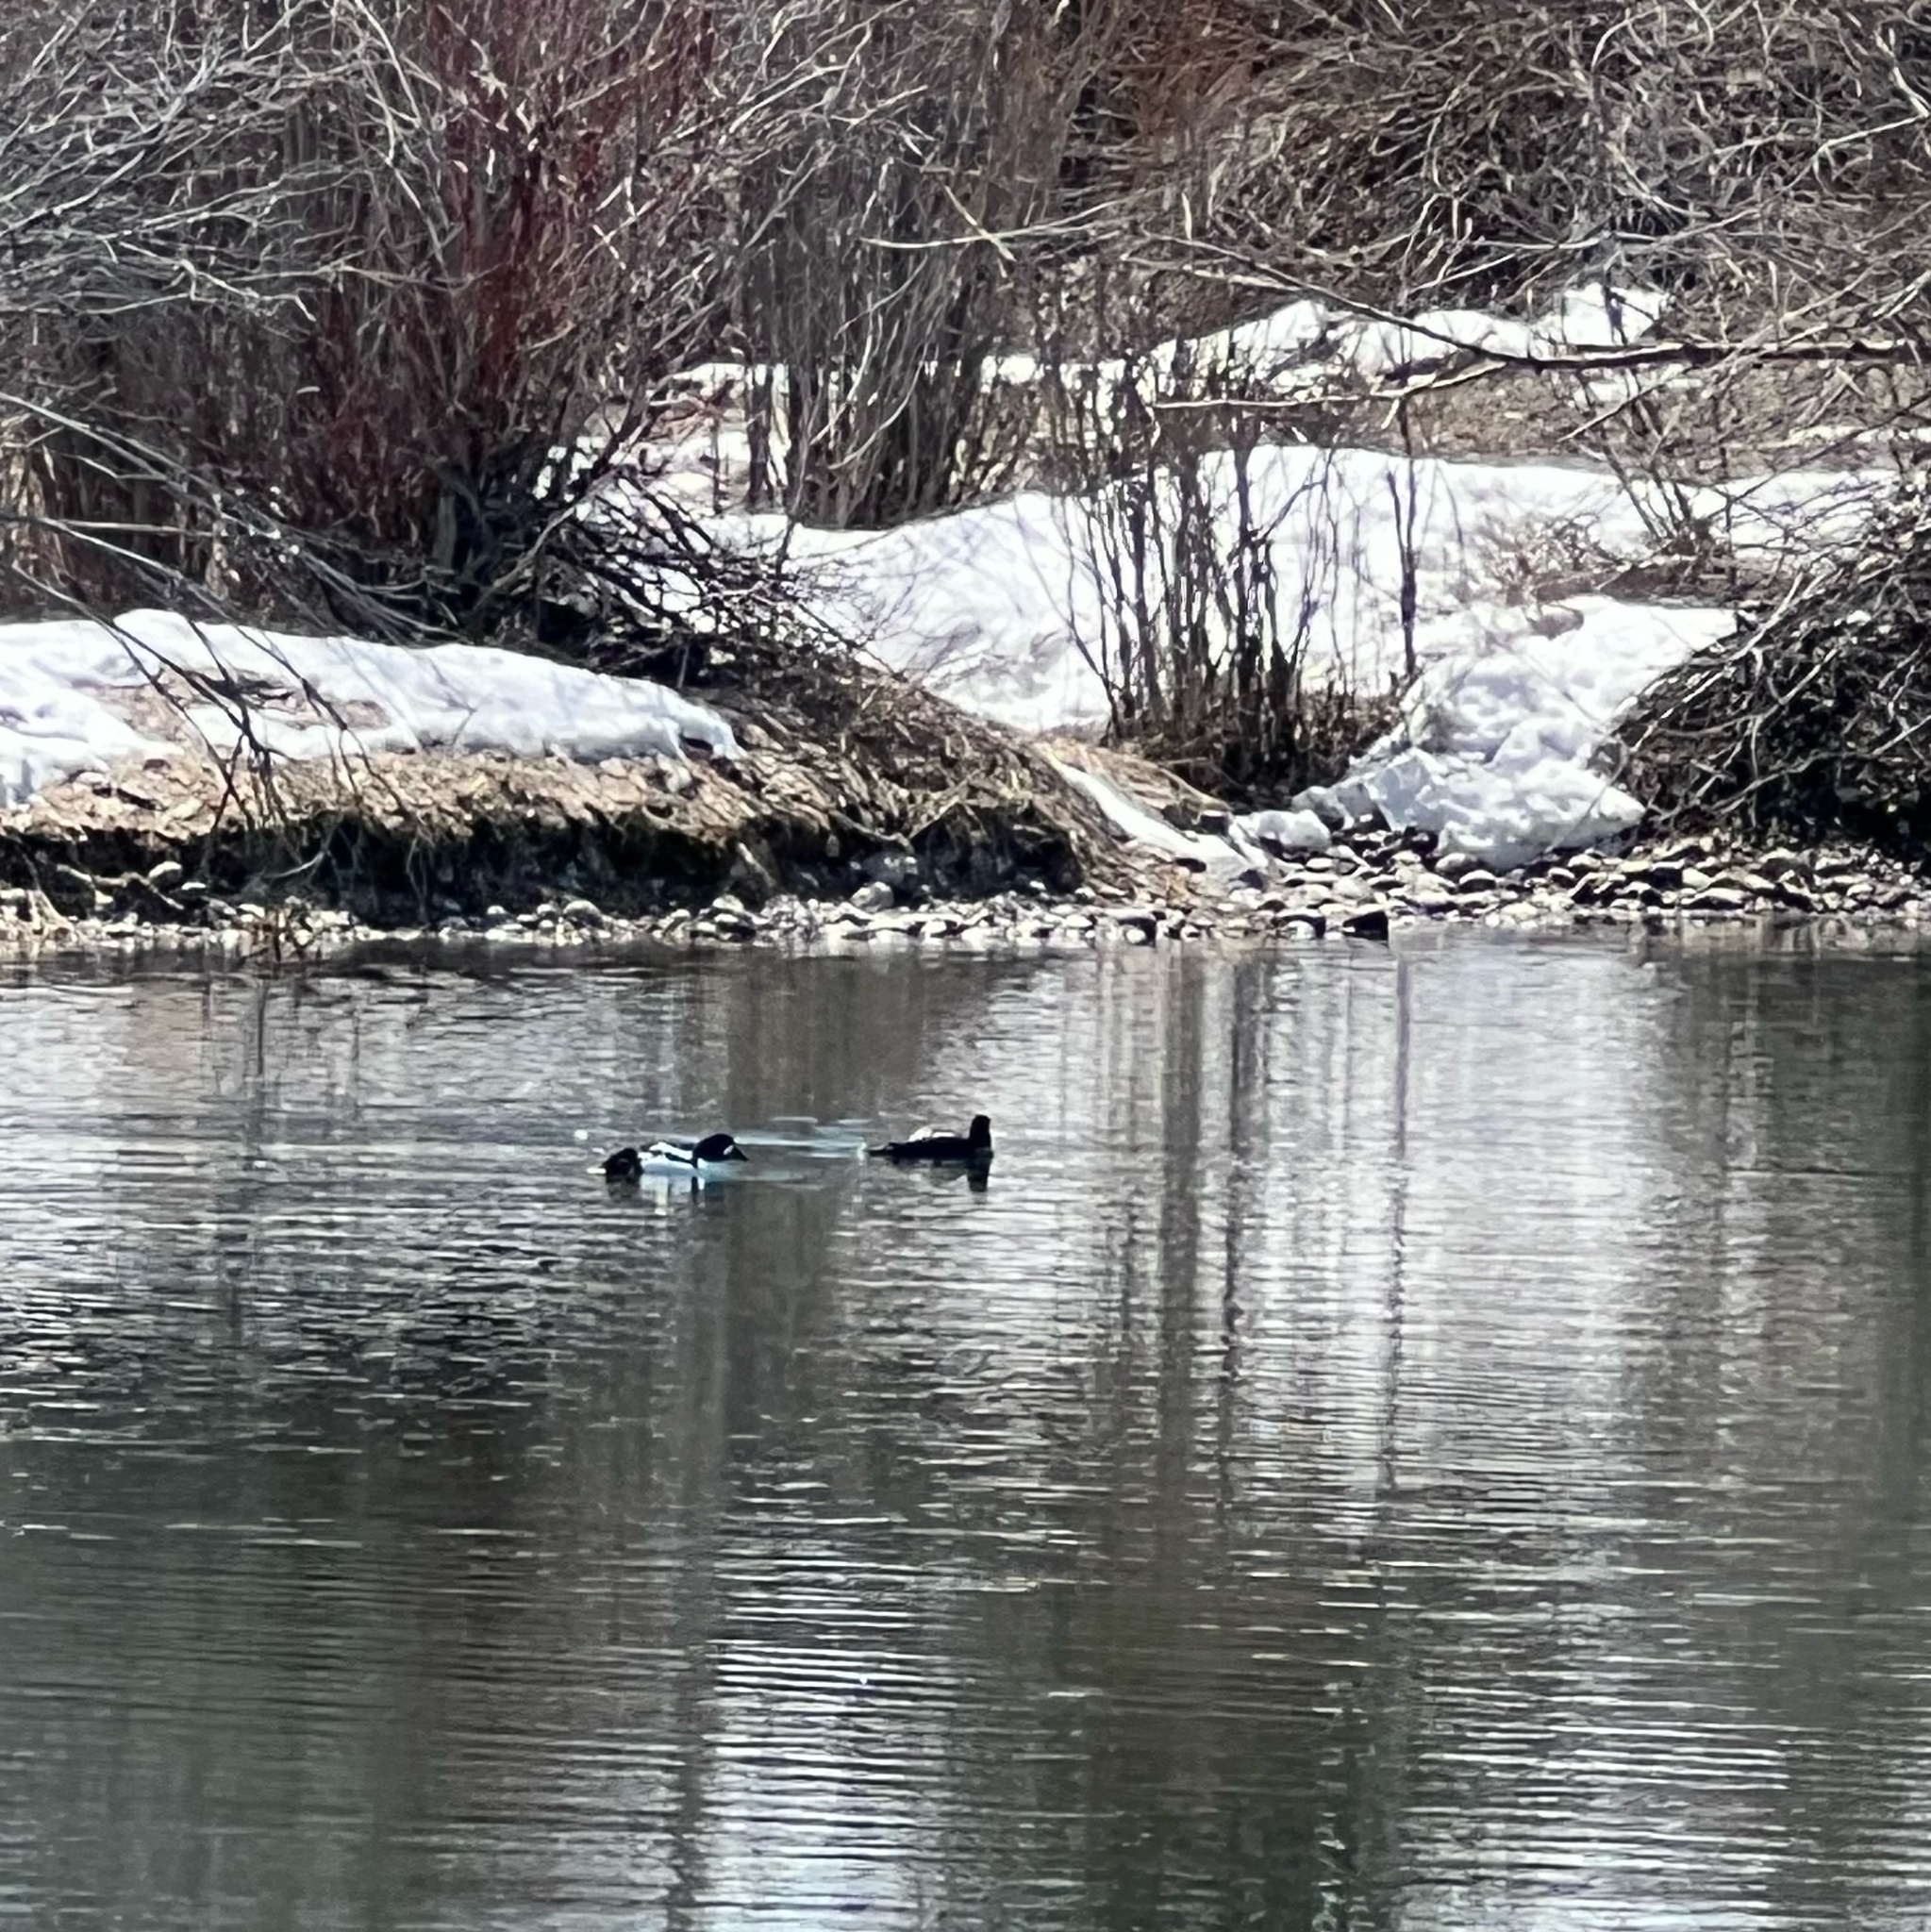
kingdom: Animalia
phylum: Chordata
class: Aves
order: Anseriformes
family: Anatidae
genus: Bucephala
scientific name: Bucephala islandica
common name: Barrow's goldeneye
